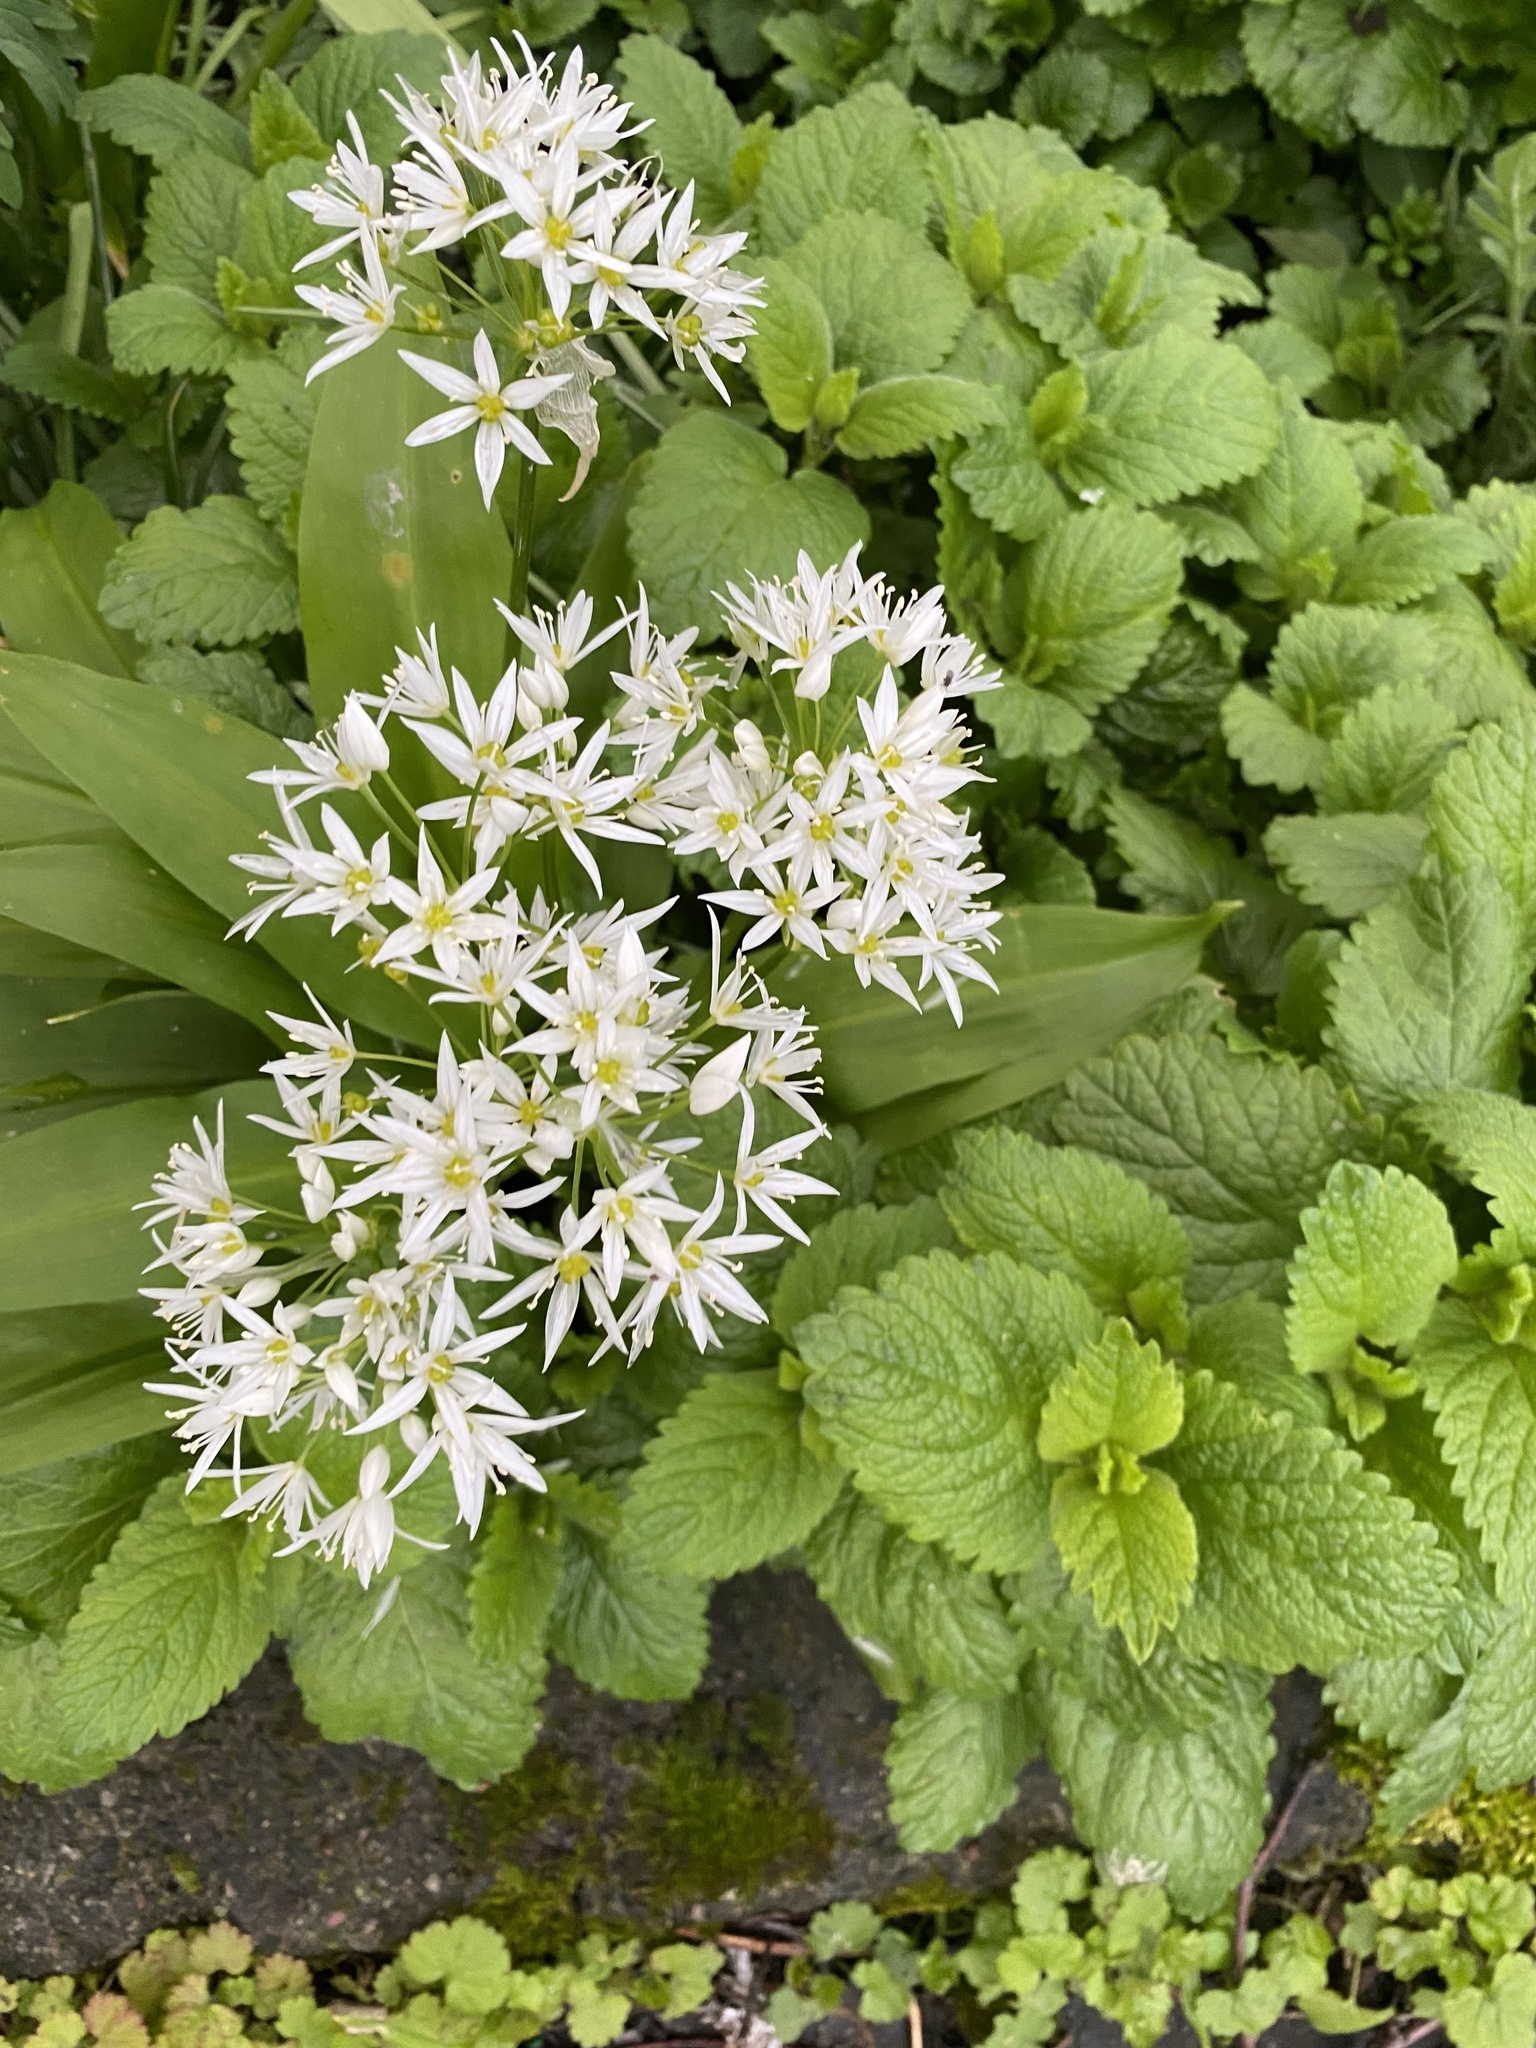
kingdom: Plantae
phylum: Tracheophyta
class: Liliopsida
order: Asparagales
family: Amaryllidaceae
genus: Allium
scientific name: Allium ursinum
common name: Ramsons
